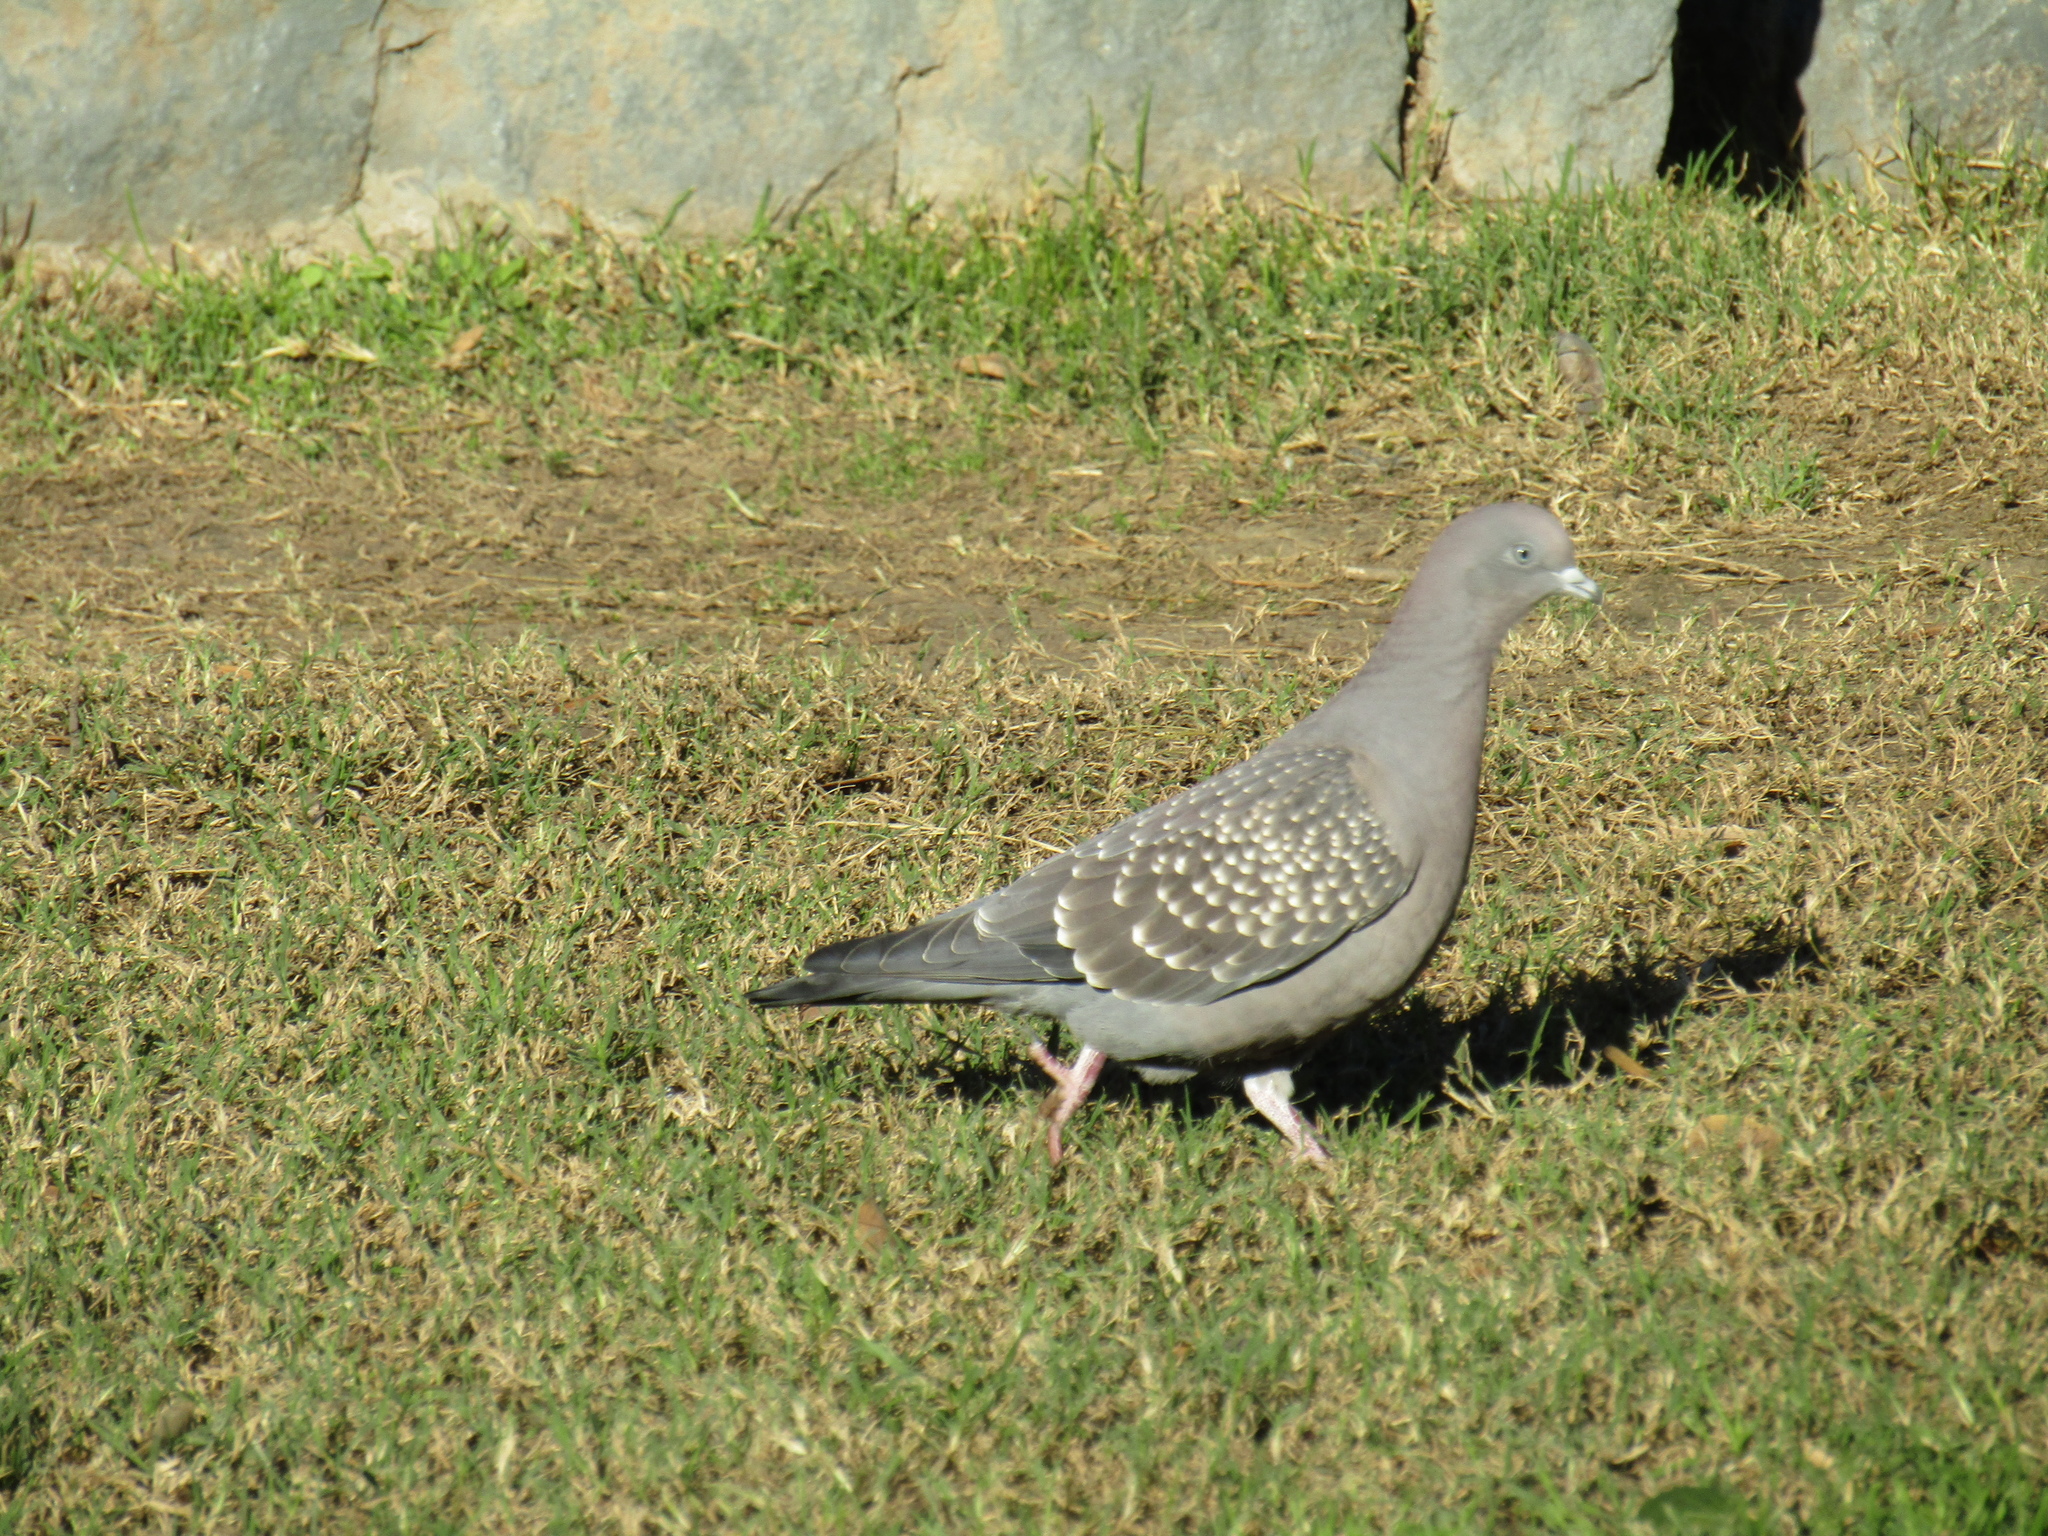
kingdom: Animalia
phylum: Chordata
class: Aves
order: Columbiformes
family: Columbidae
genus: Patagioenas
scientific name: Patagioenas maculosa
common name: Spot-winged pigeon
